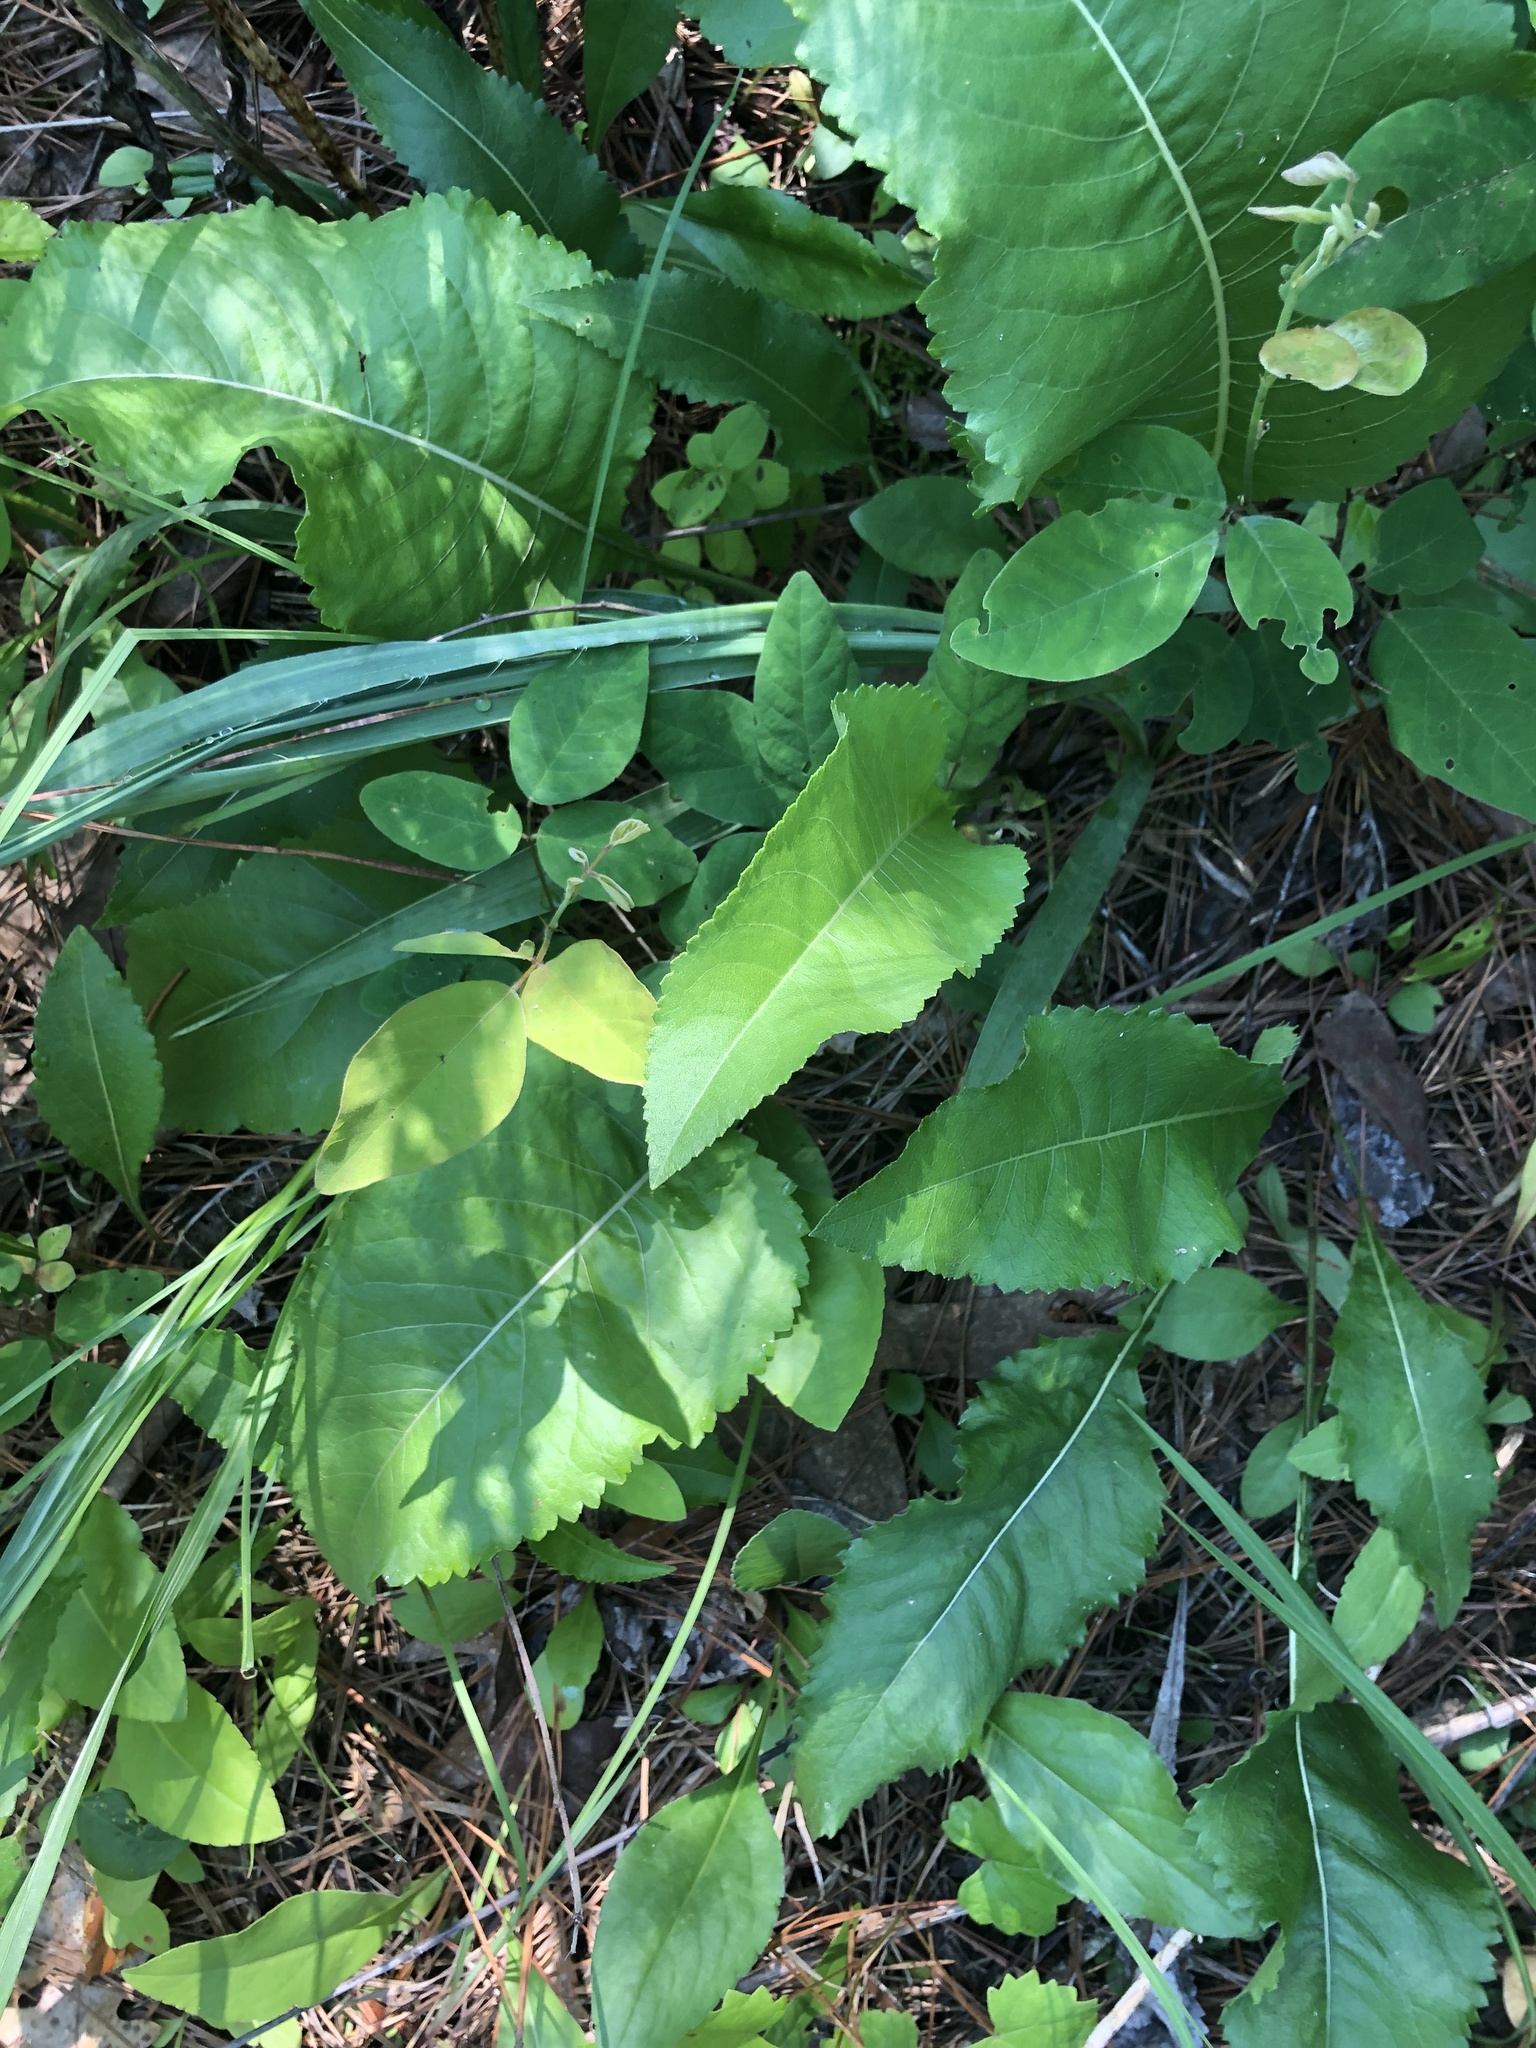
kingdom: Plantae
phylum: Tracheophyta
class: Magnoliopsida
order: Asterales
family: Asteraceae
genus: Parthenium
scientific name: Parthenium integrifolium
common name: American feverfew
